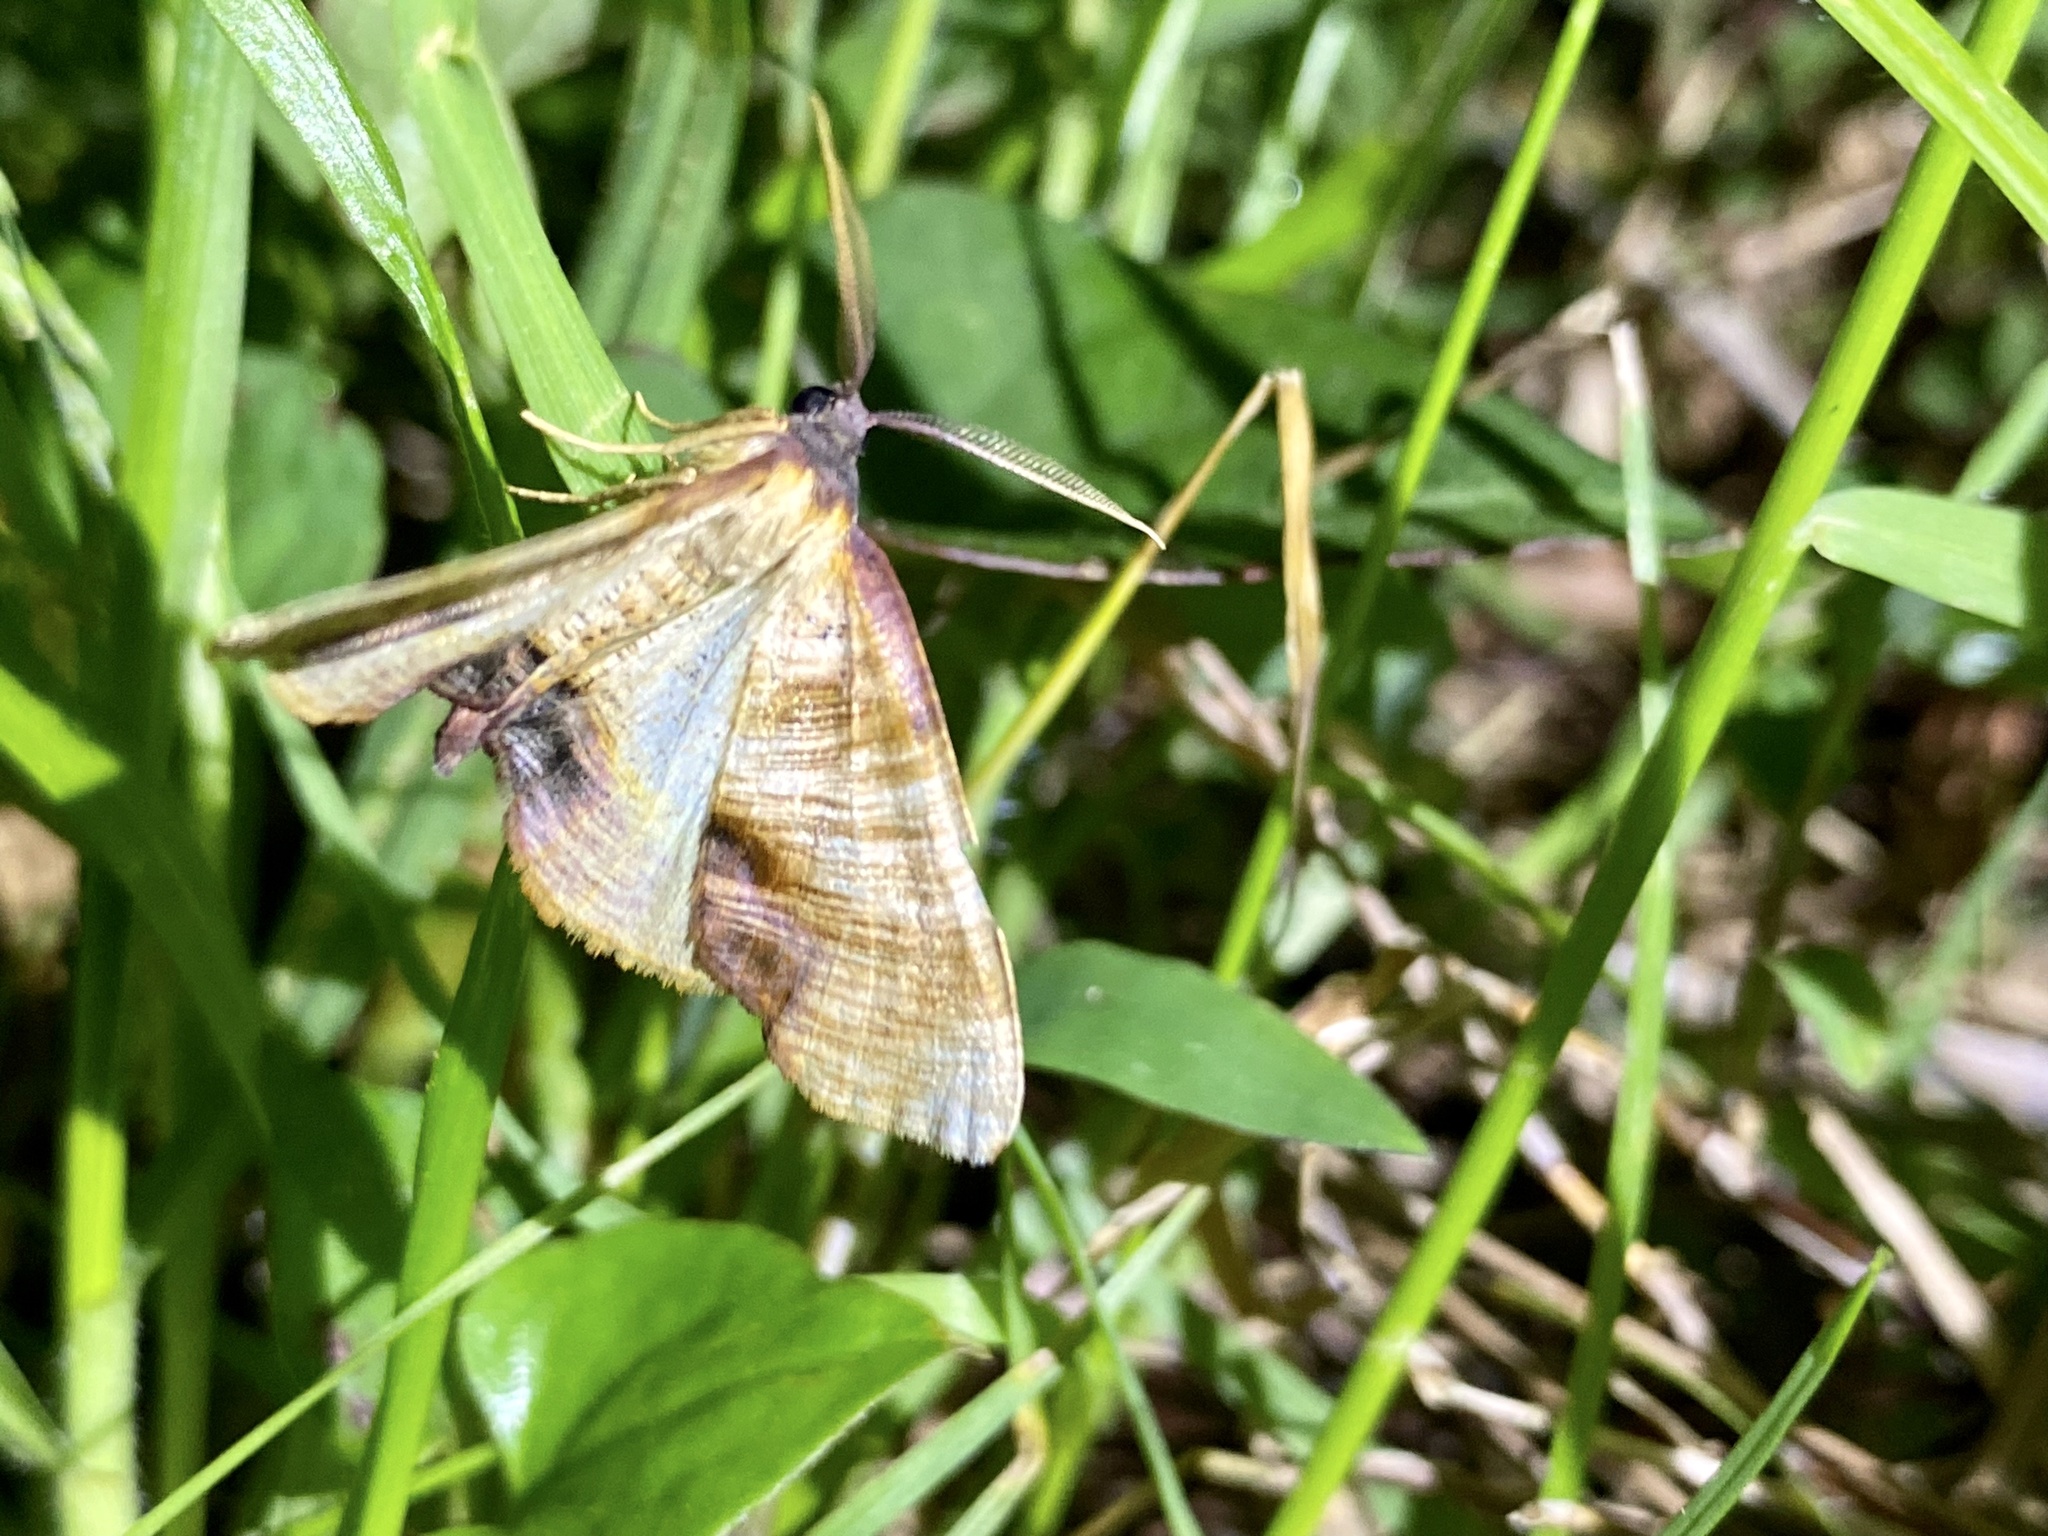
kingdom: Animalia
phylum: Arthropoda
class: Insecta
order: Lepidoptera
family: Geometridae
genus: Plagodis
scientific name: Plagodis dolabraria
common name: Scorched wing
